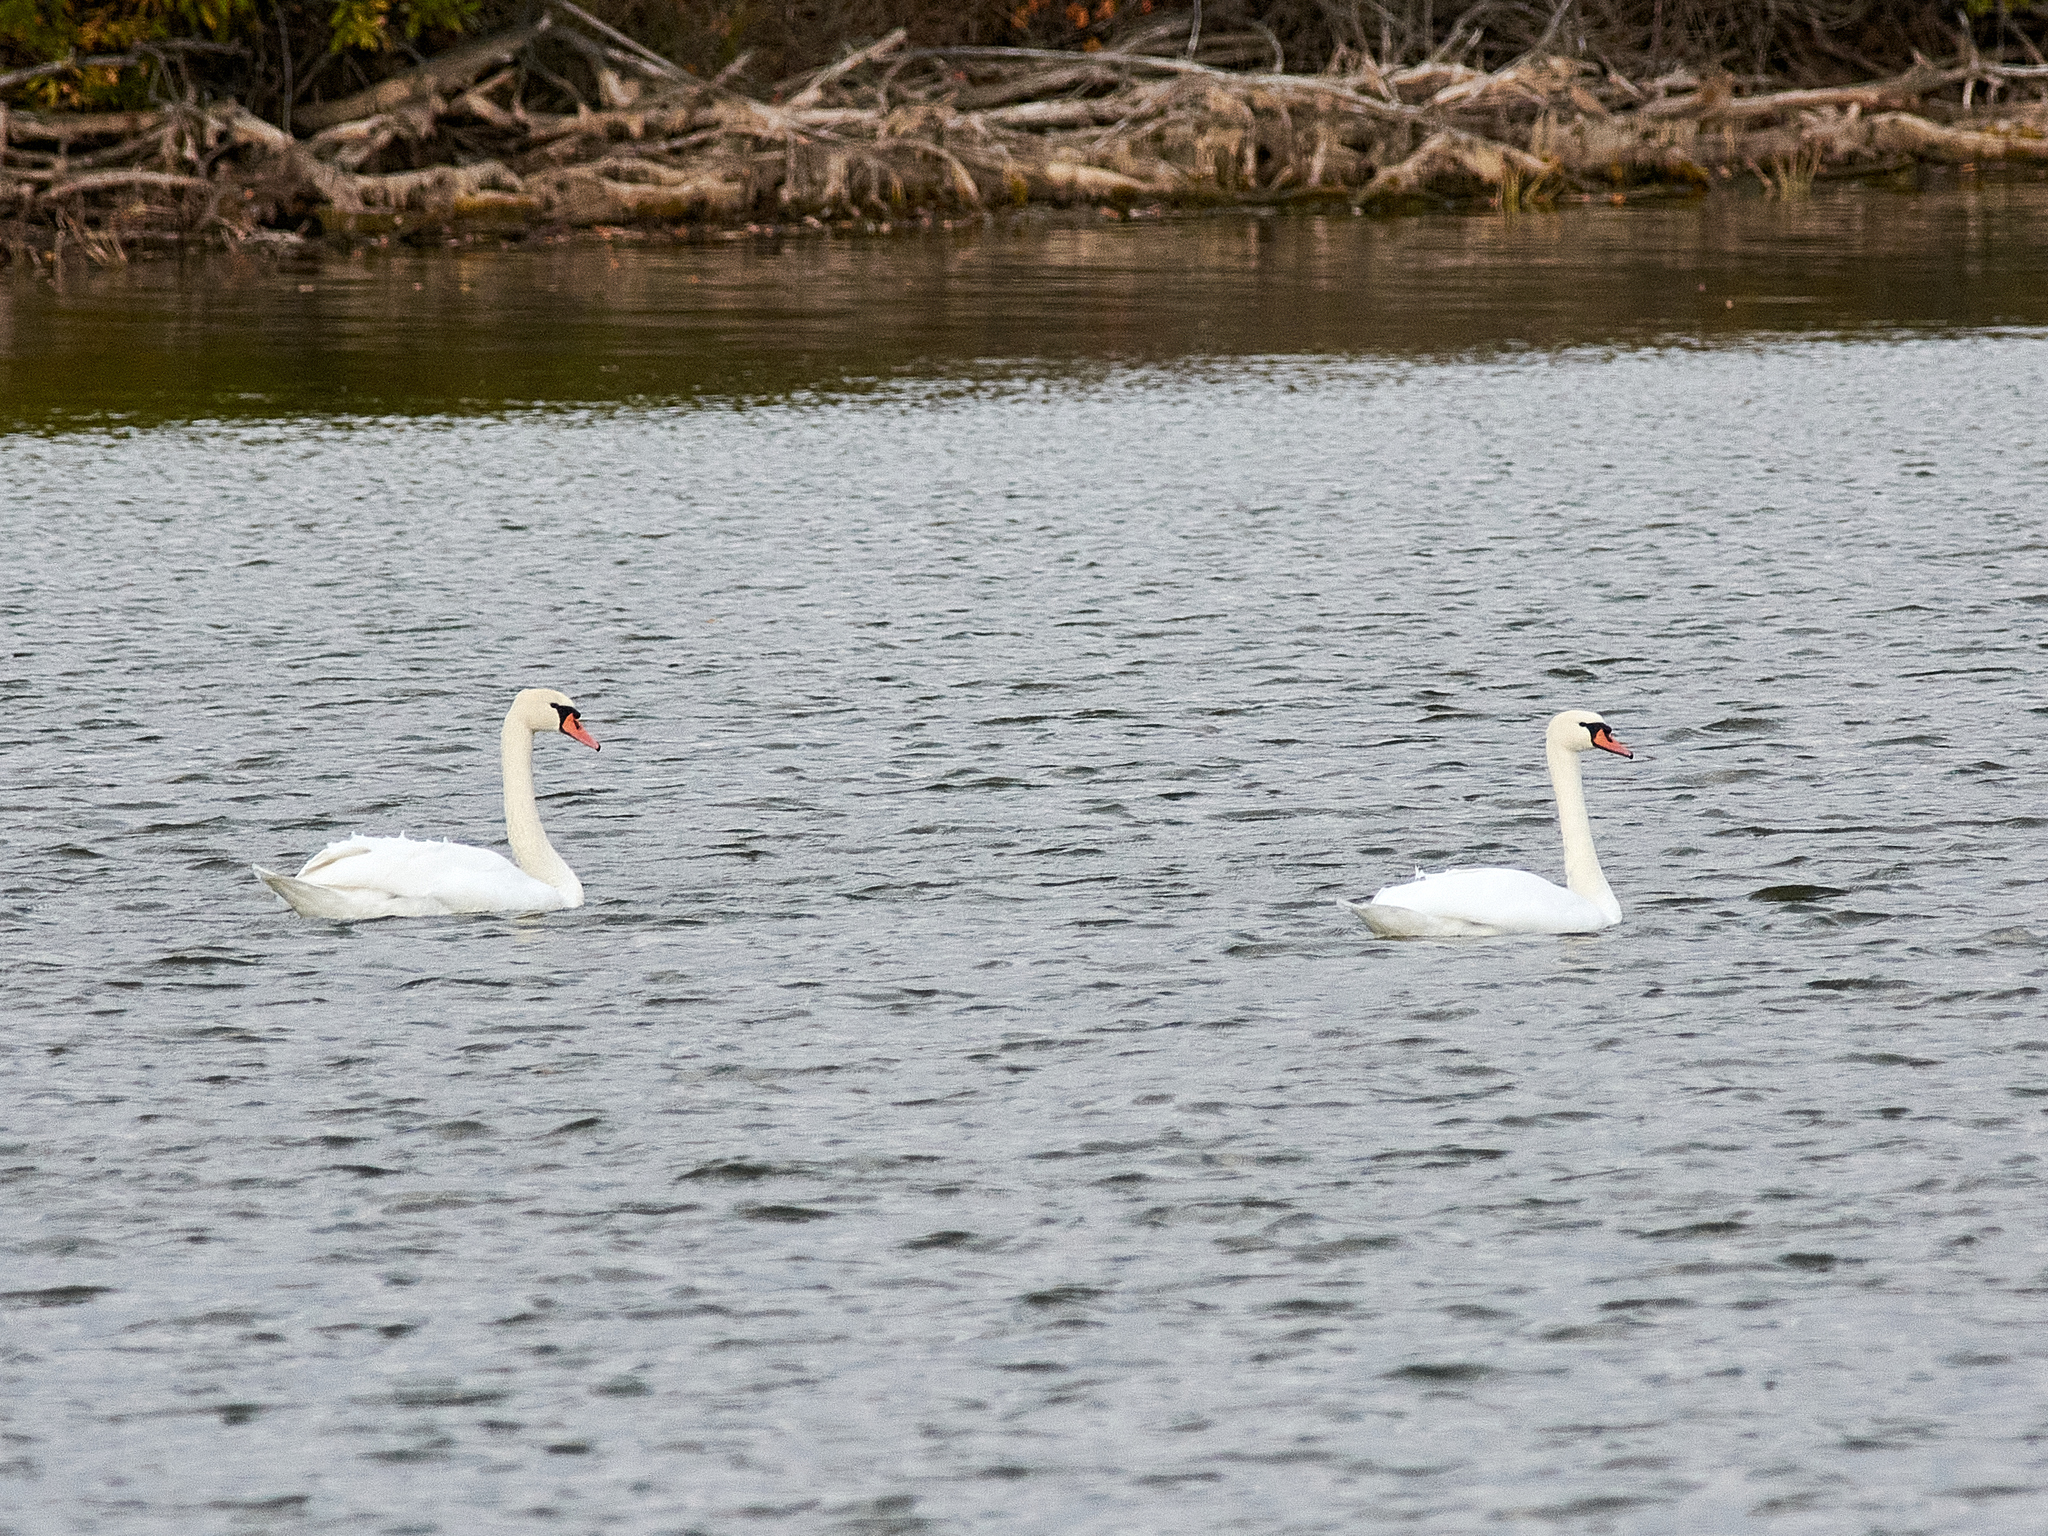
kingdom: Animalia
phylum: Chordata
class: Aves
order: Anseriformes
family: Anatidae
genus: Cygnus
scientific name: Cygnus olor
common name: Mute swan
